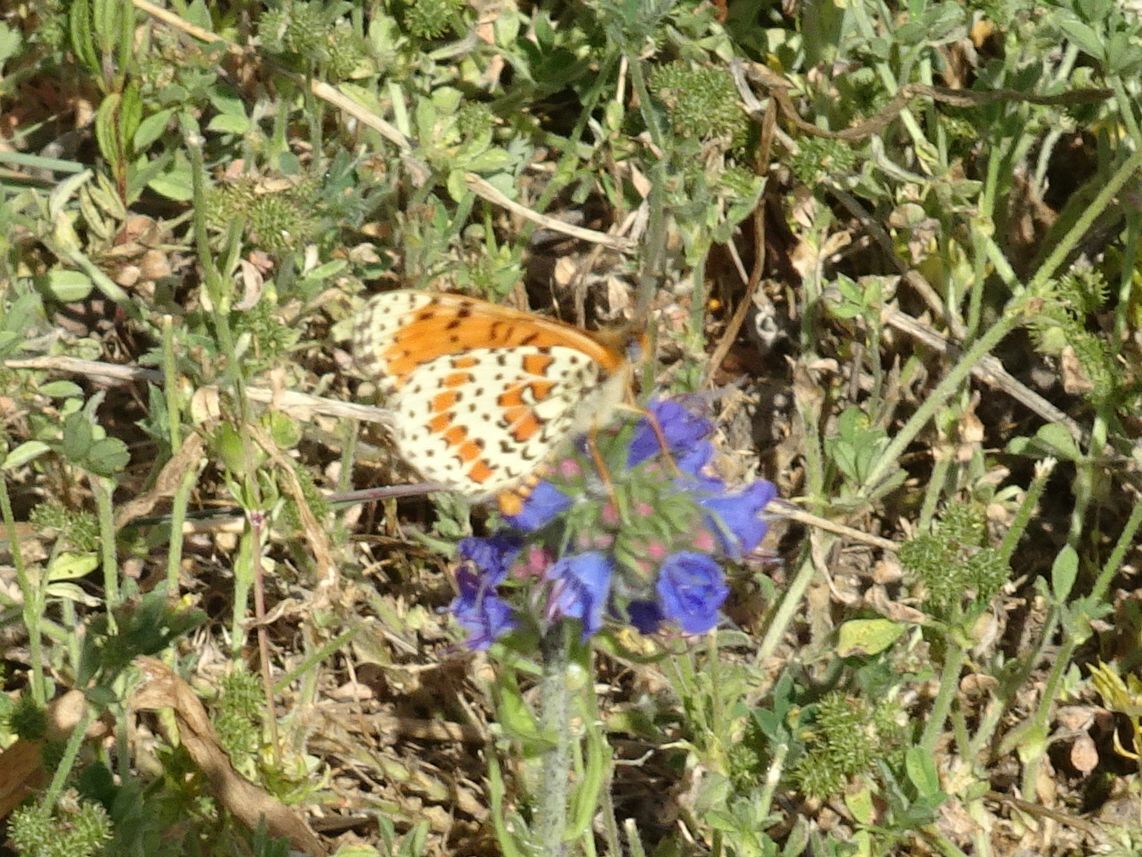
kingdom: Animalia
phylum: Arthropoda
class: Insecta
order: Lepidoptera
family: Nymphalidae
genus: Melitaea
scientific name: Melitaea didyma
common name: Spotted fritillary
